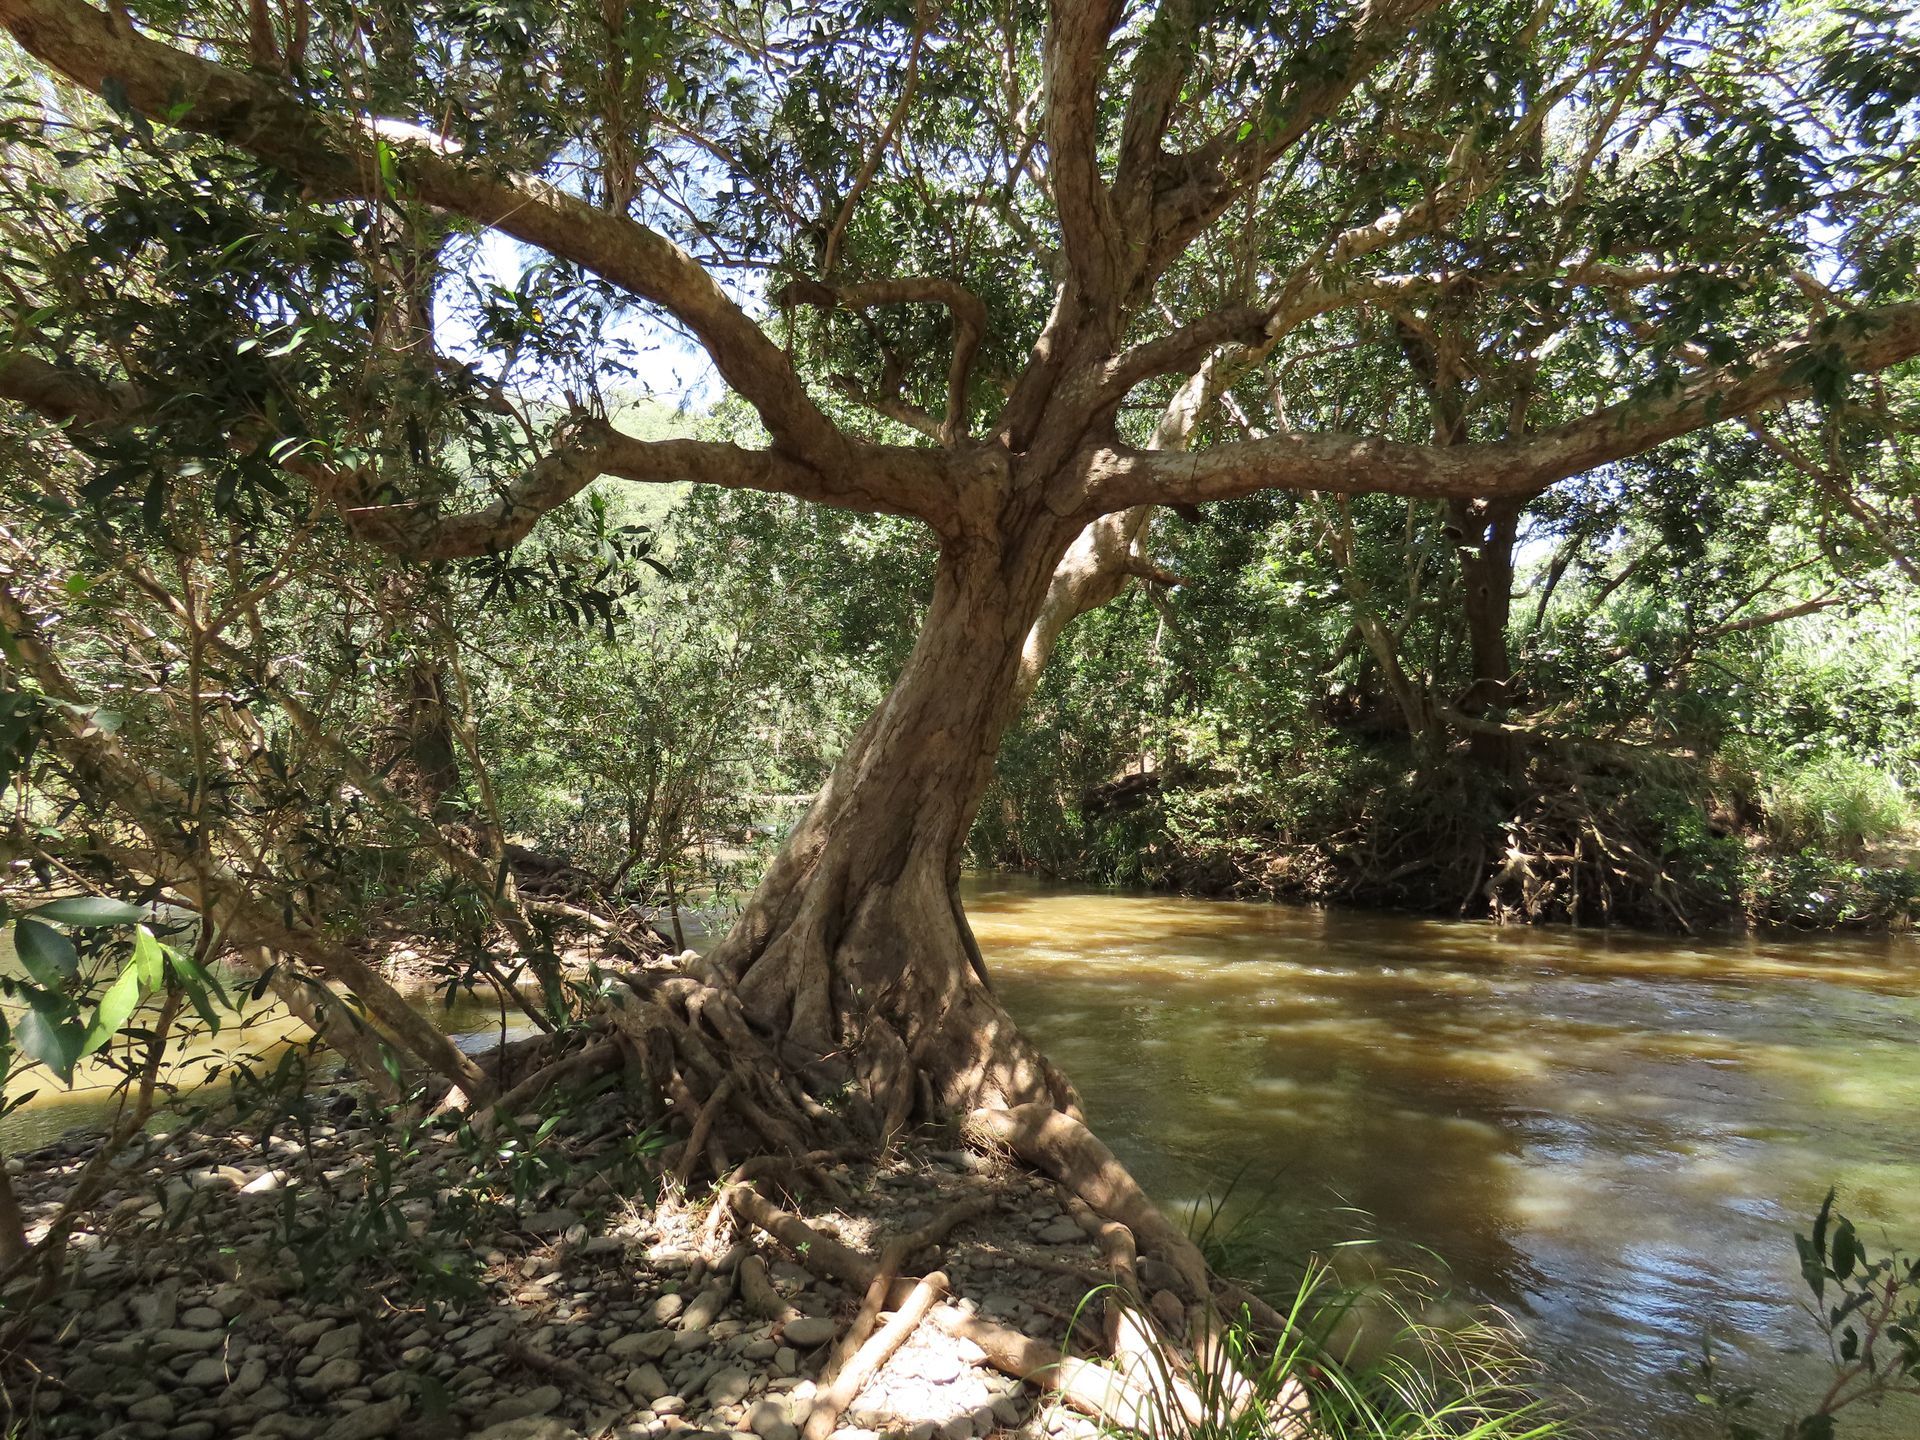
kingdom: Plantae
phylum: Tracheophyta
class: Magnoliopsida
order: Myrtales
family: Myrtaceae
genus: Syzygium
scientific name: Syzygium tierneyanum
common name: River-cherry
